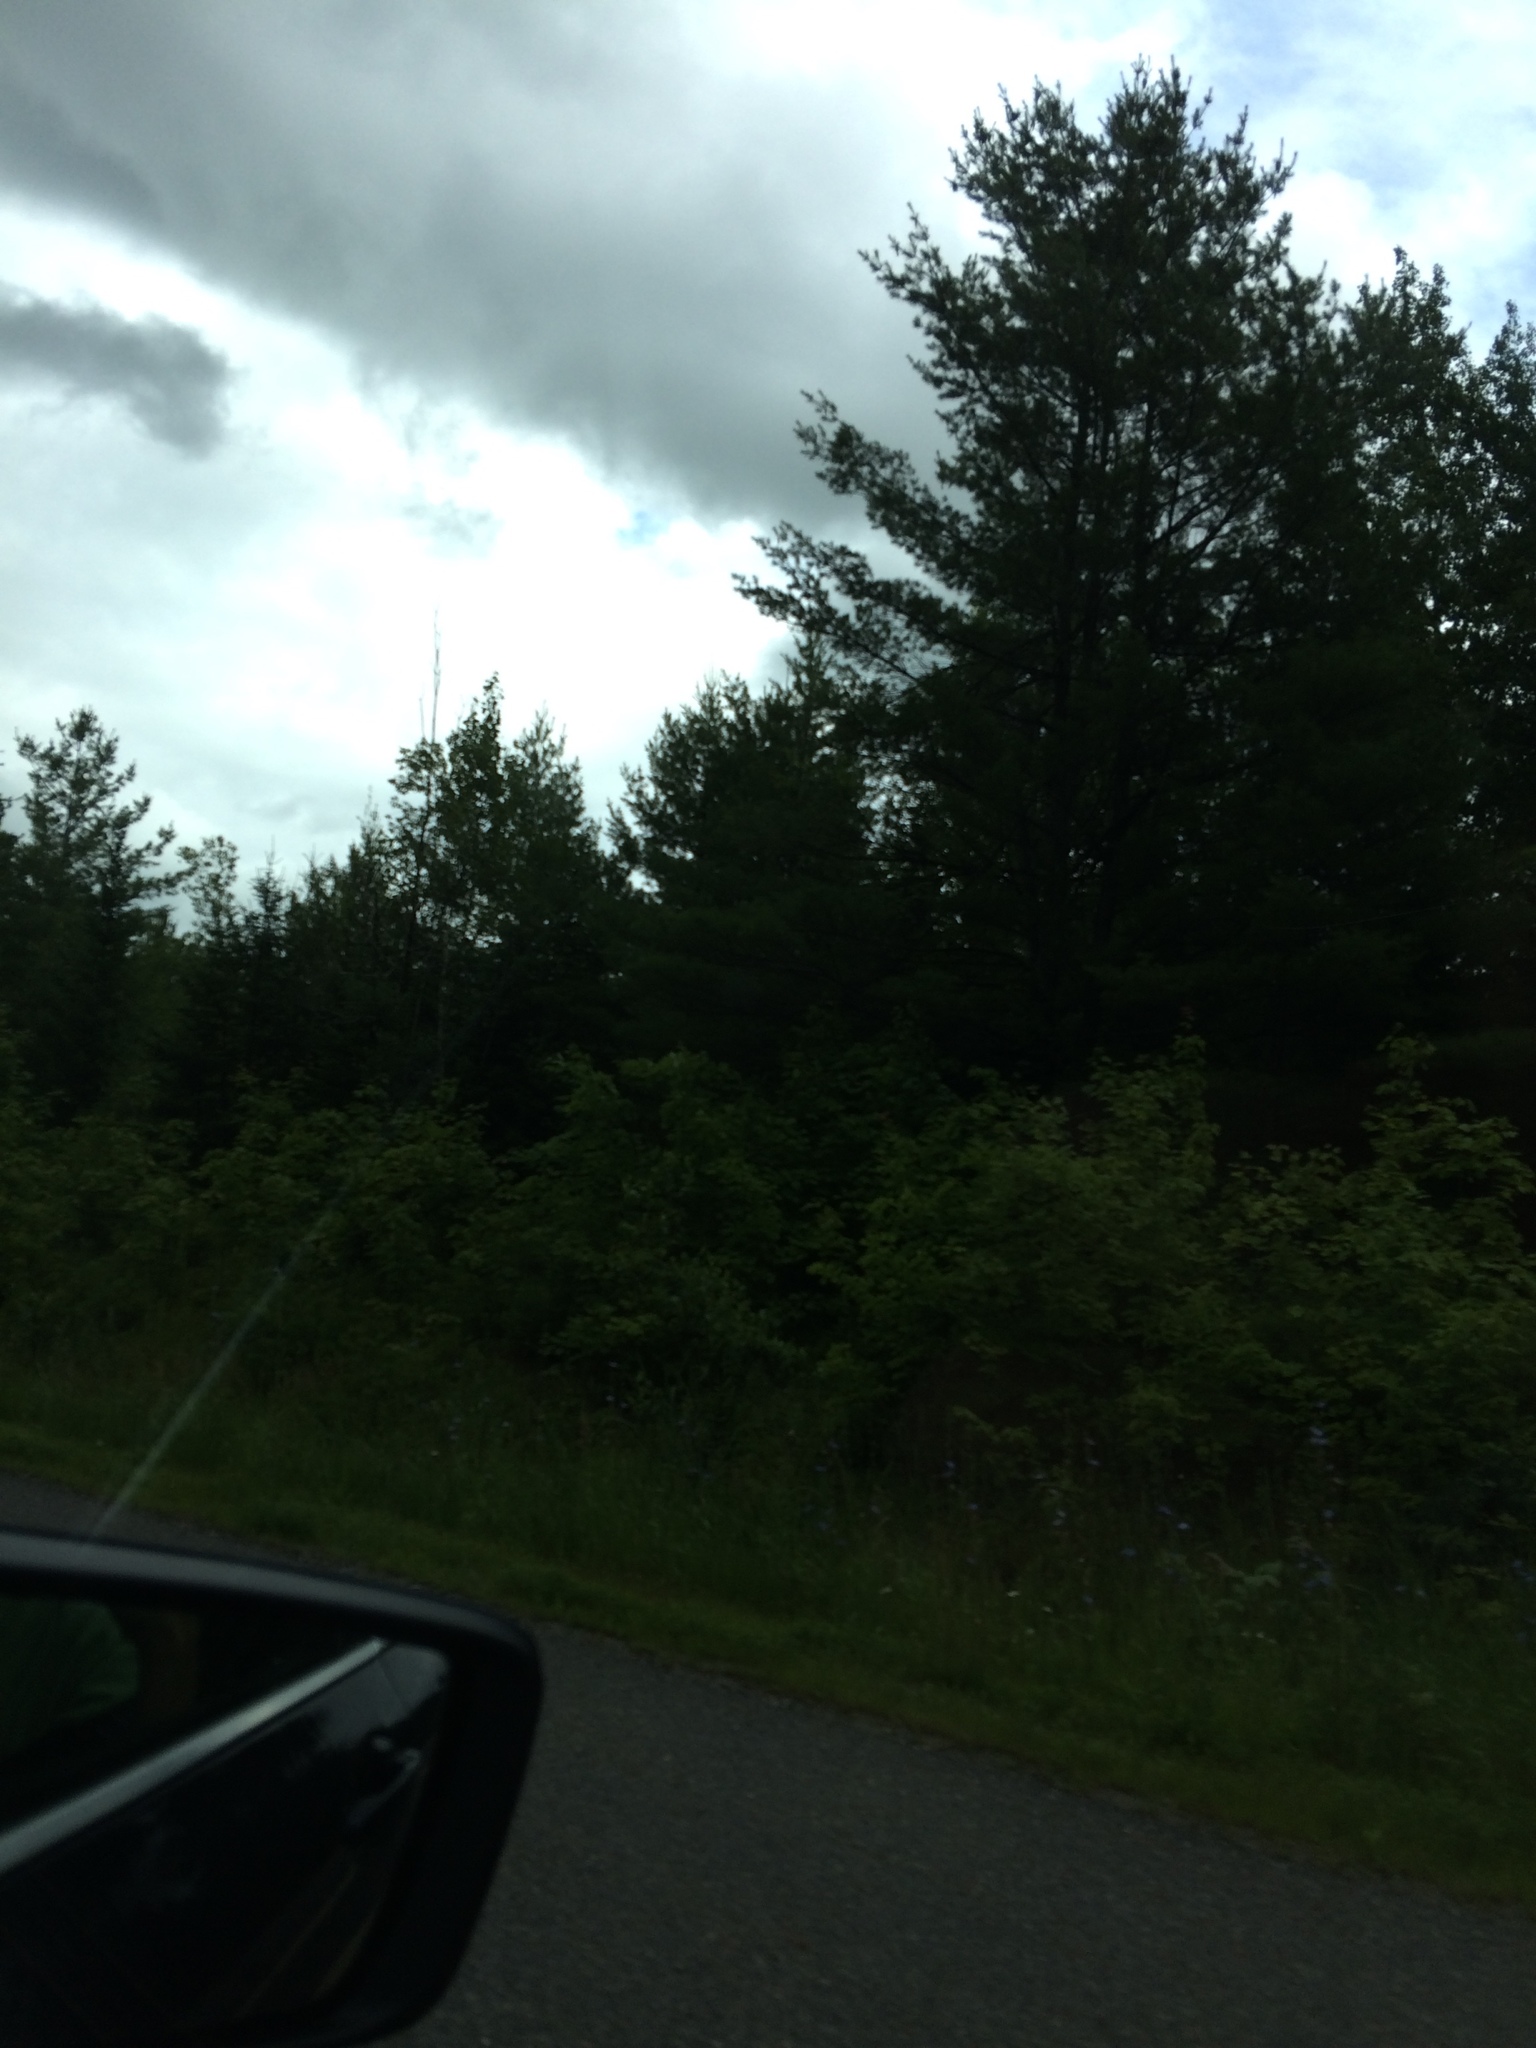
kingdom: Plantae
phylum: Tracheophyta
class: Pinopsida
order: Pinales
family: Pinaceae
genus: Pinus
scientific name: Pinus strobus
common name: Weymouth pine
